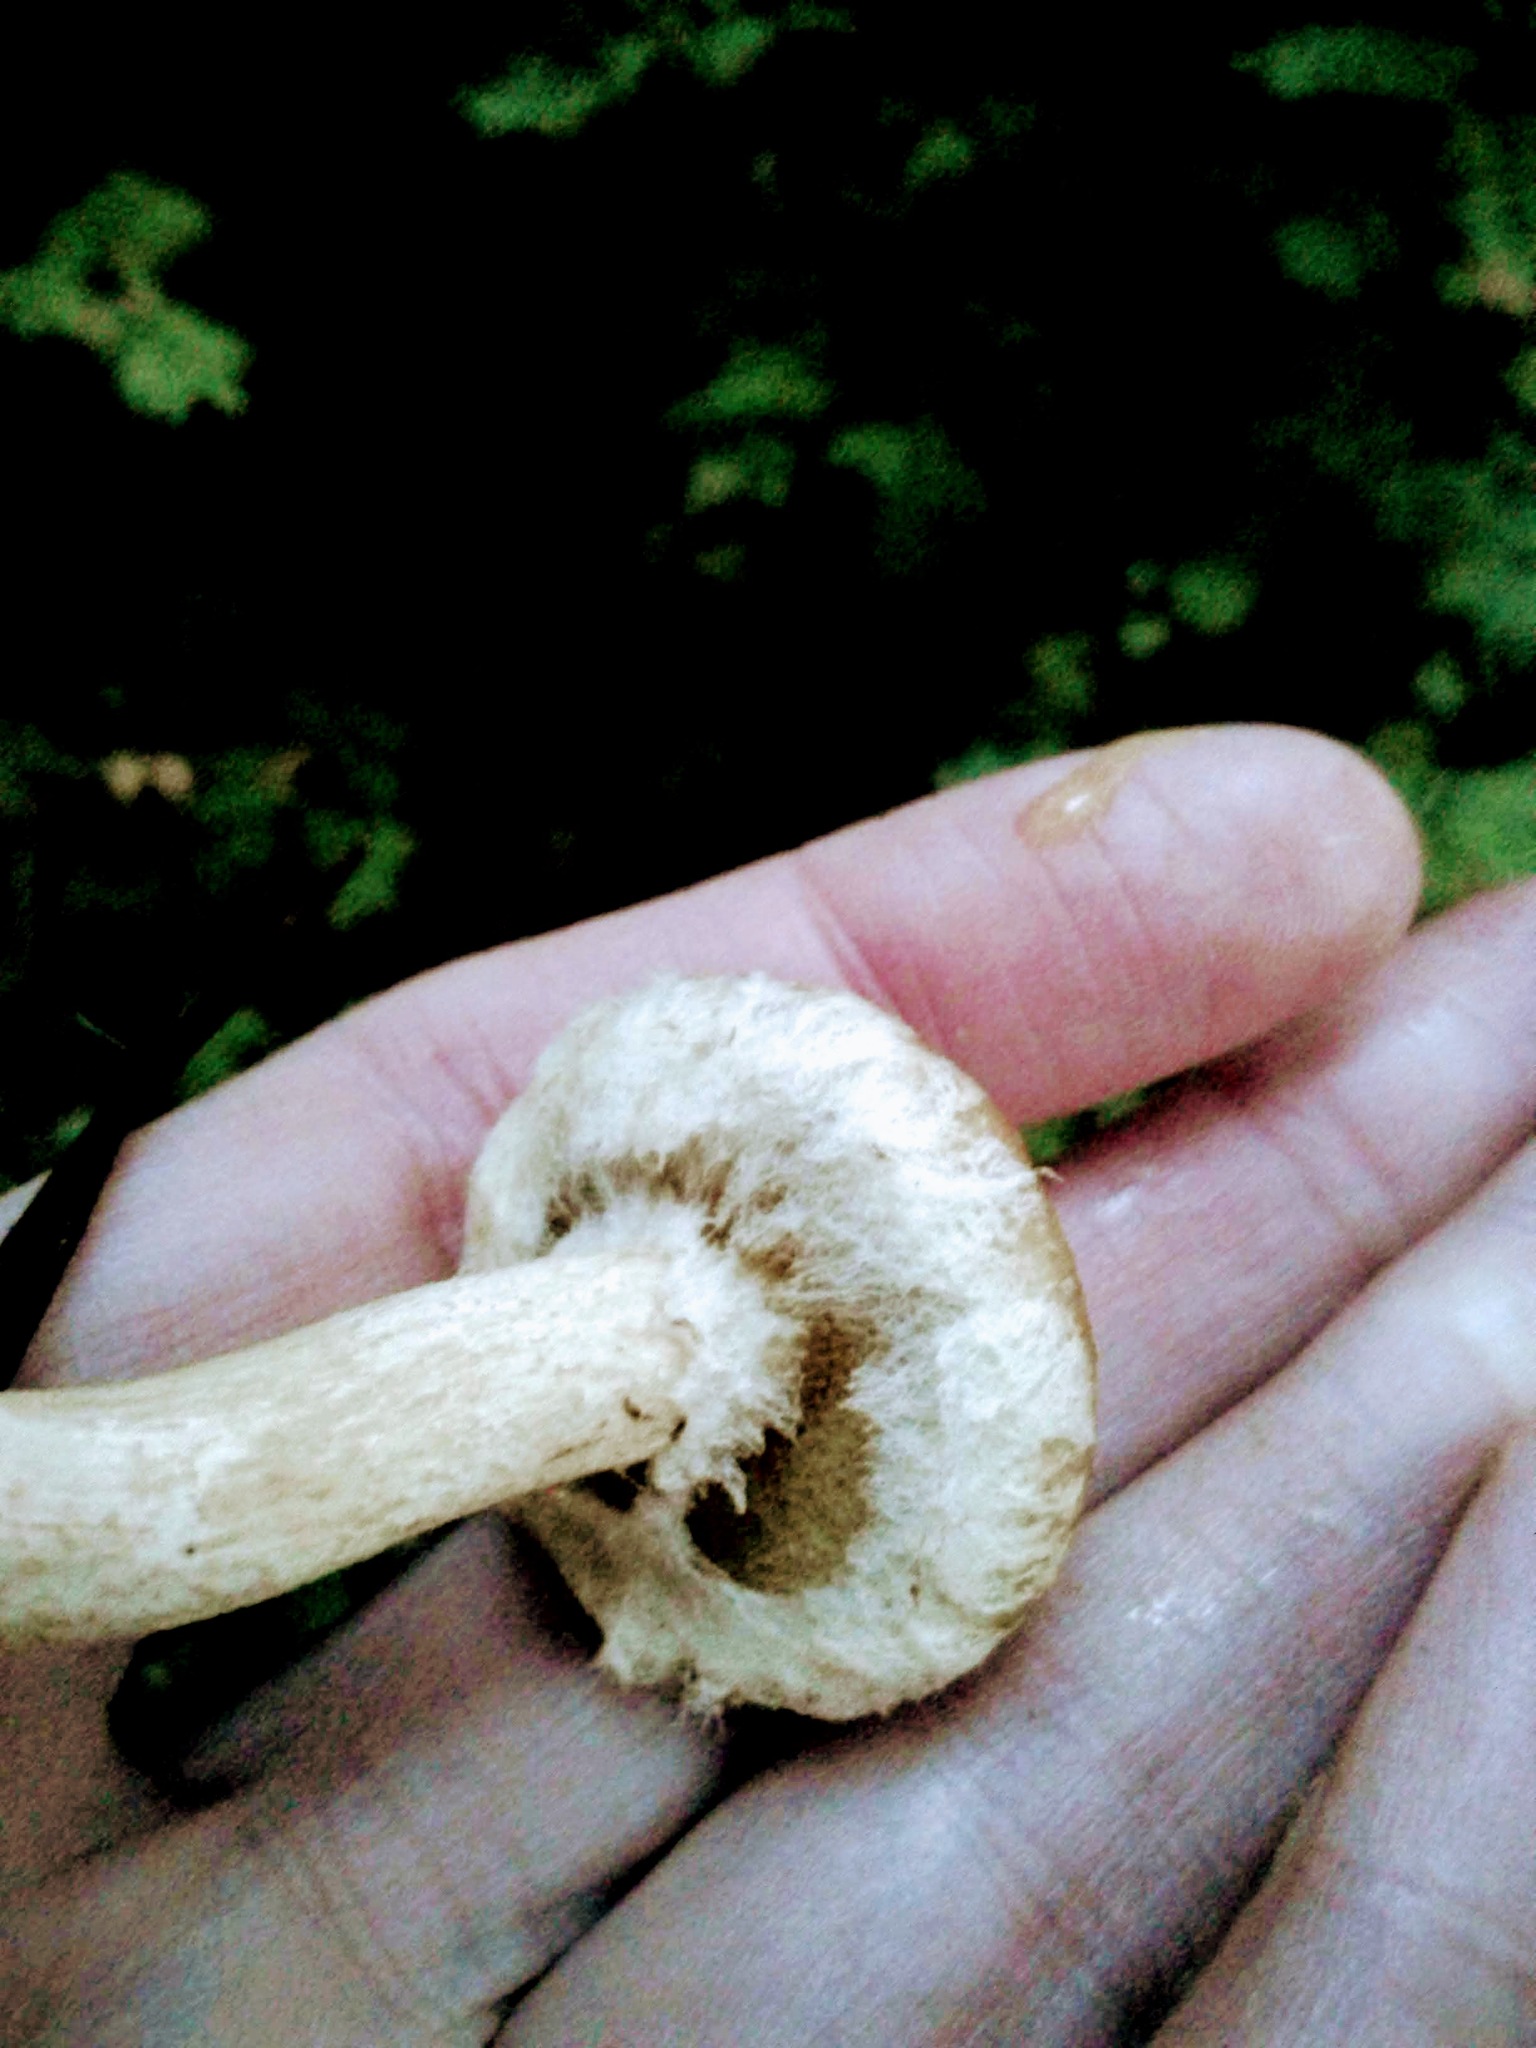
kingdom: Fungi
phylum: Basidiomycota
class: Agaricomycetes
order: Boletales
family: Suillaceae
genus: Suillus
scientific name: Suillus acidus
